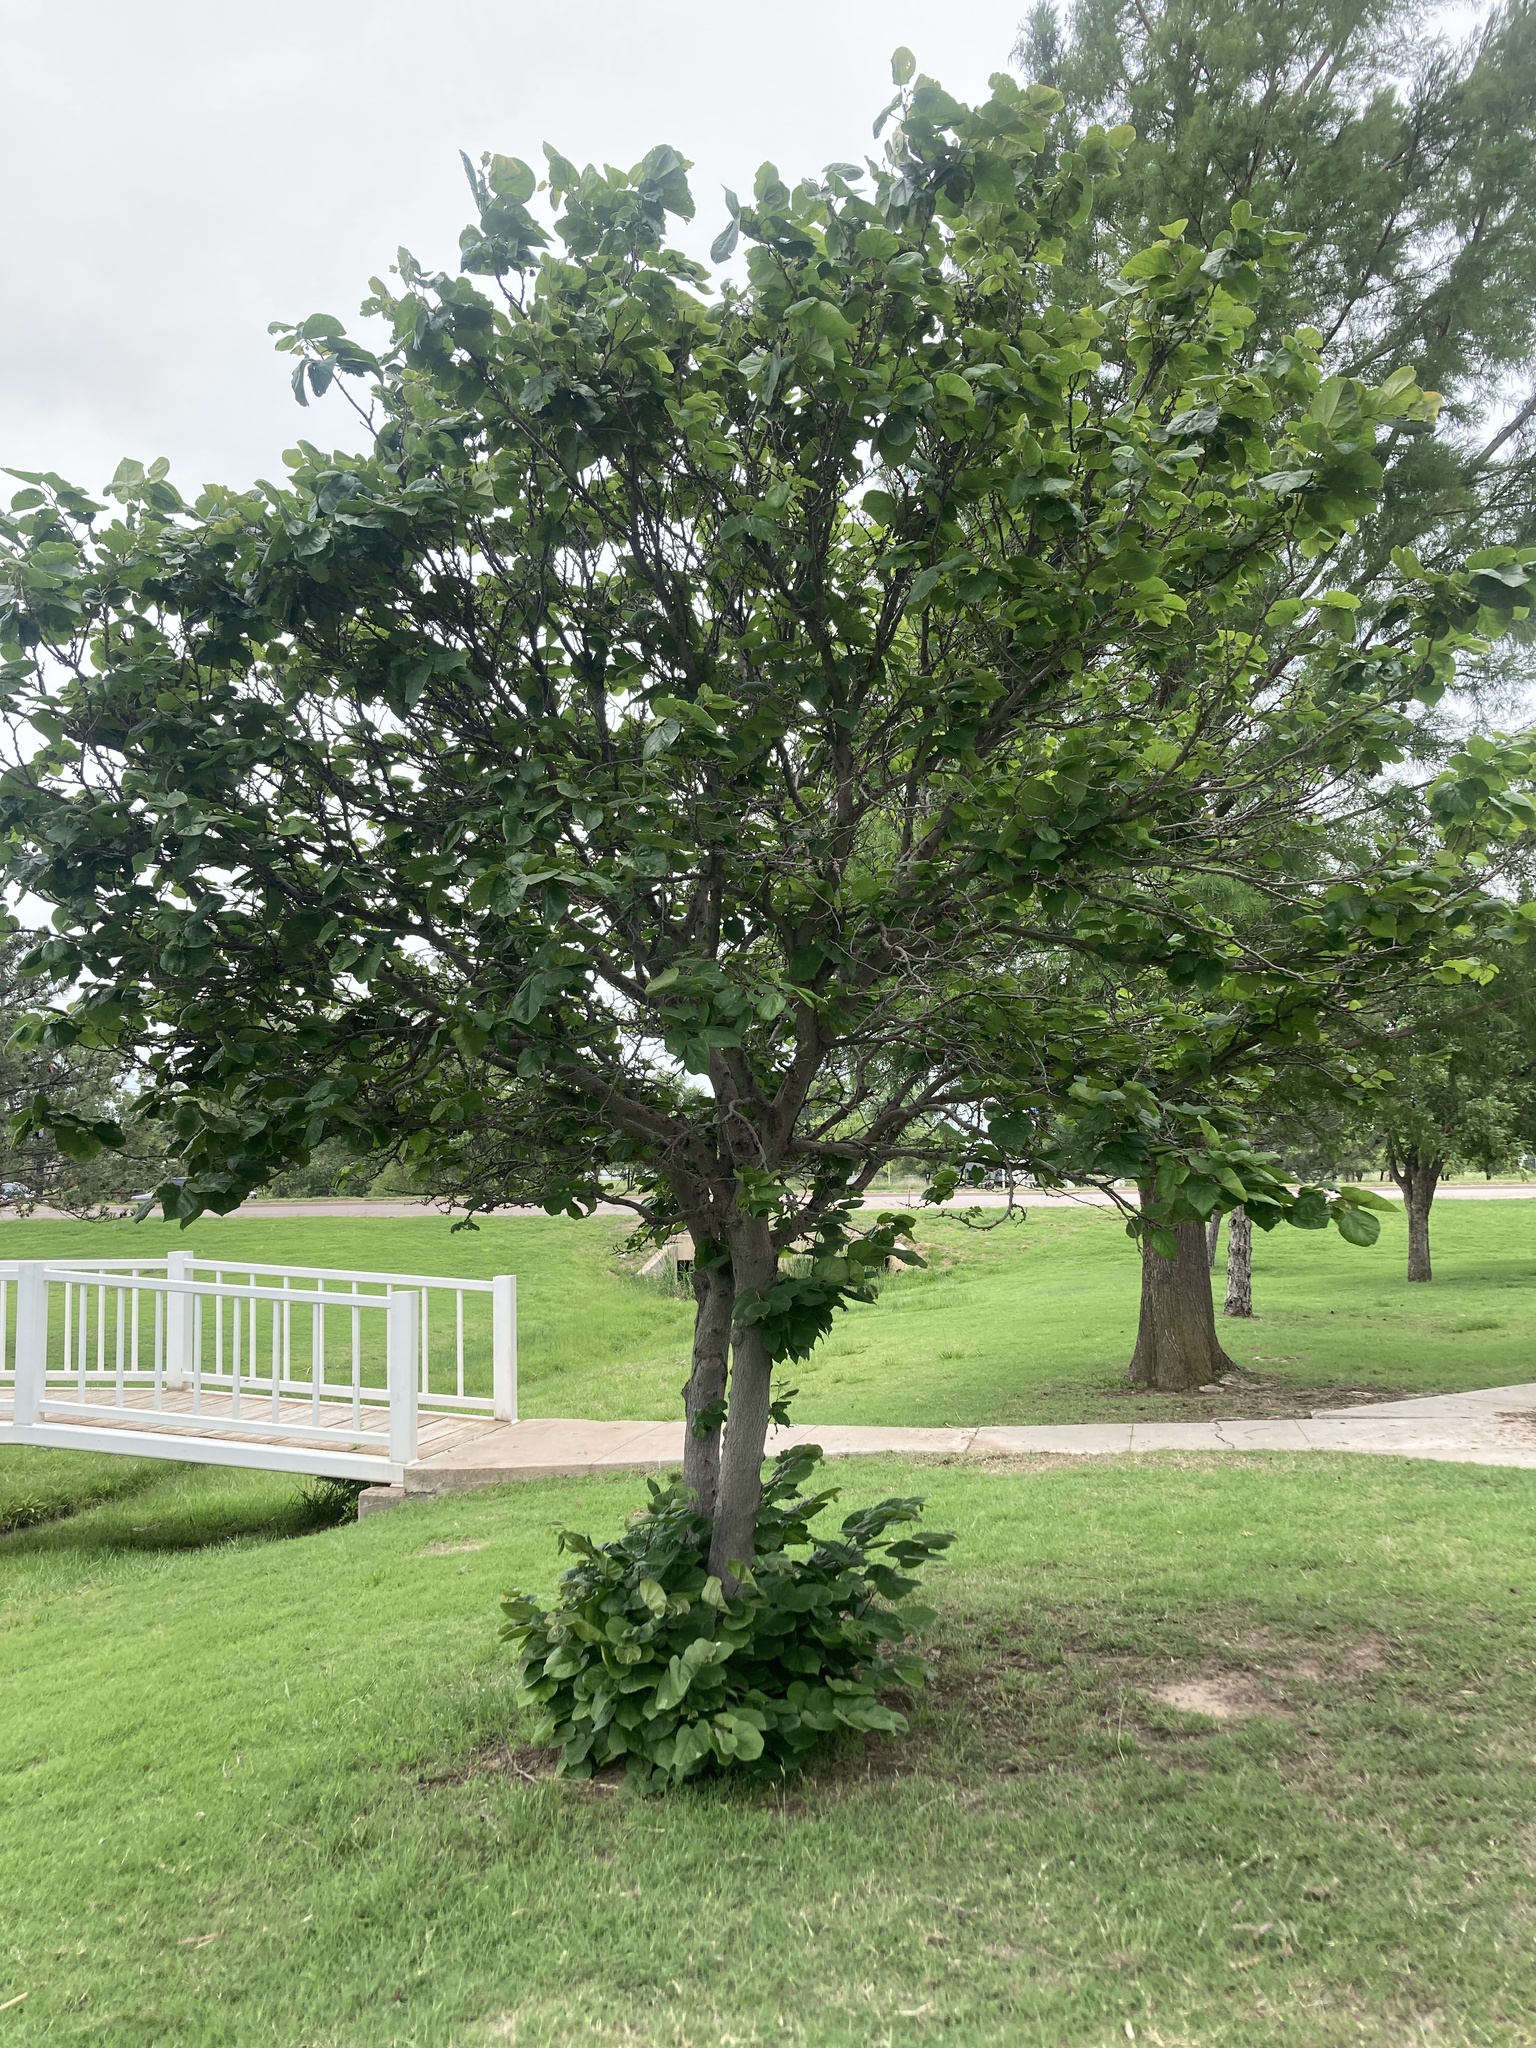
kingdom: Plantae
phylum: Tracheophyta
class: Magnoliopsida
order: Fabales
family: Fabaceae
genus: Cercis
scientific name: Cercis canadensis
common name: Eastern redbud
